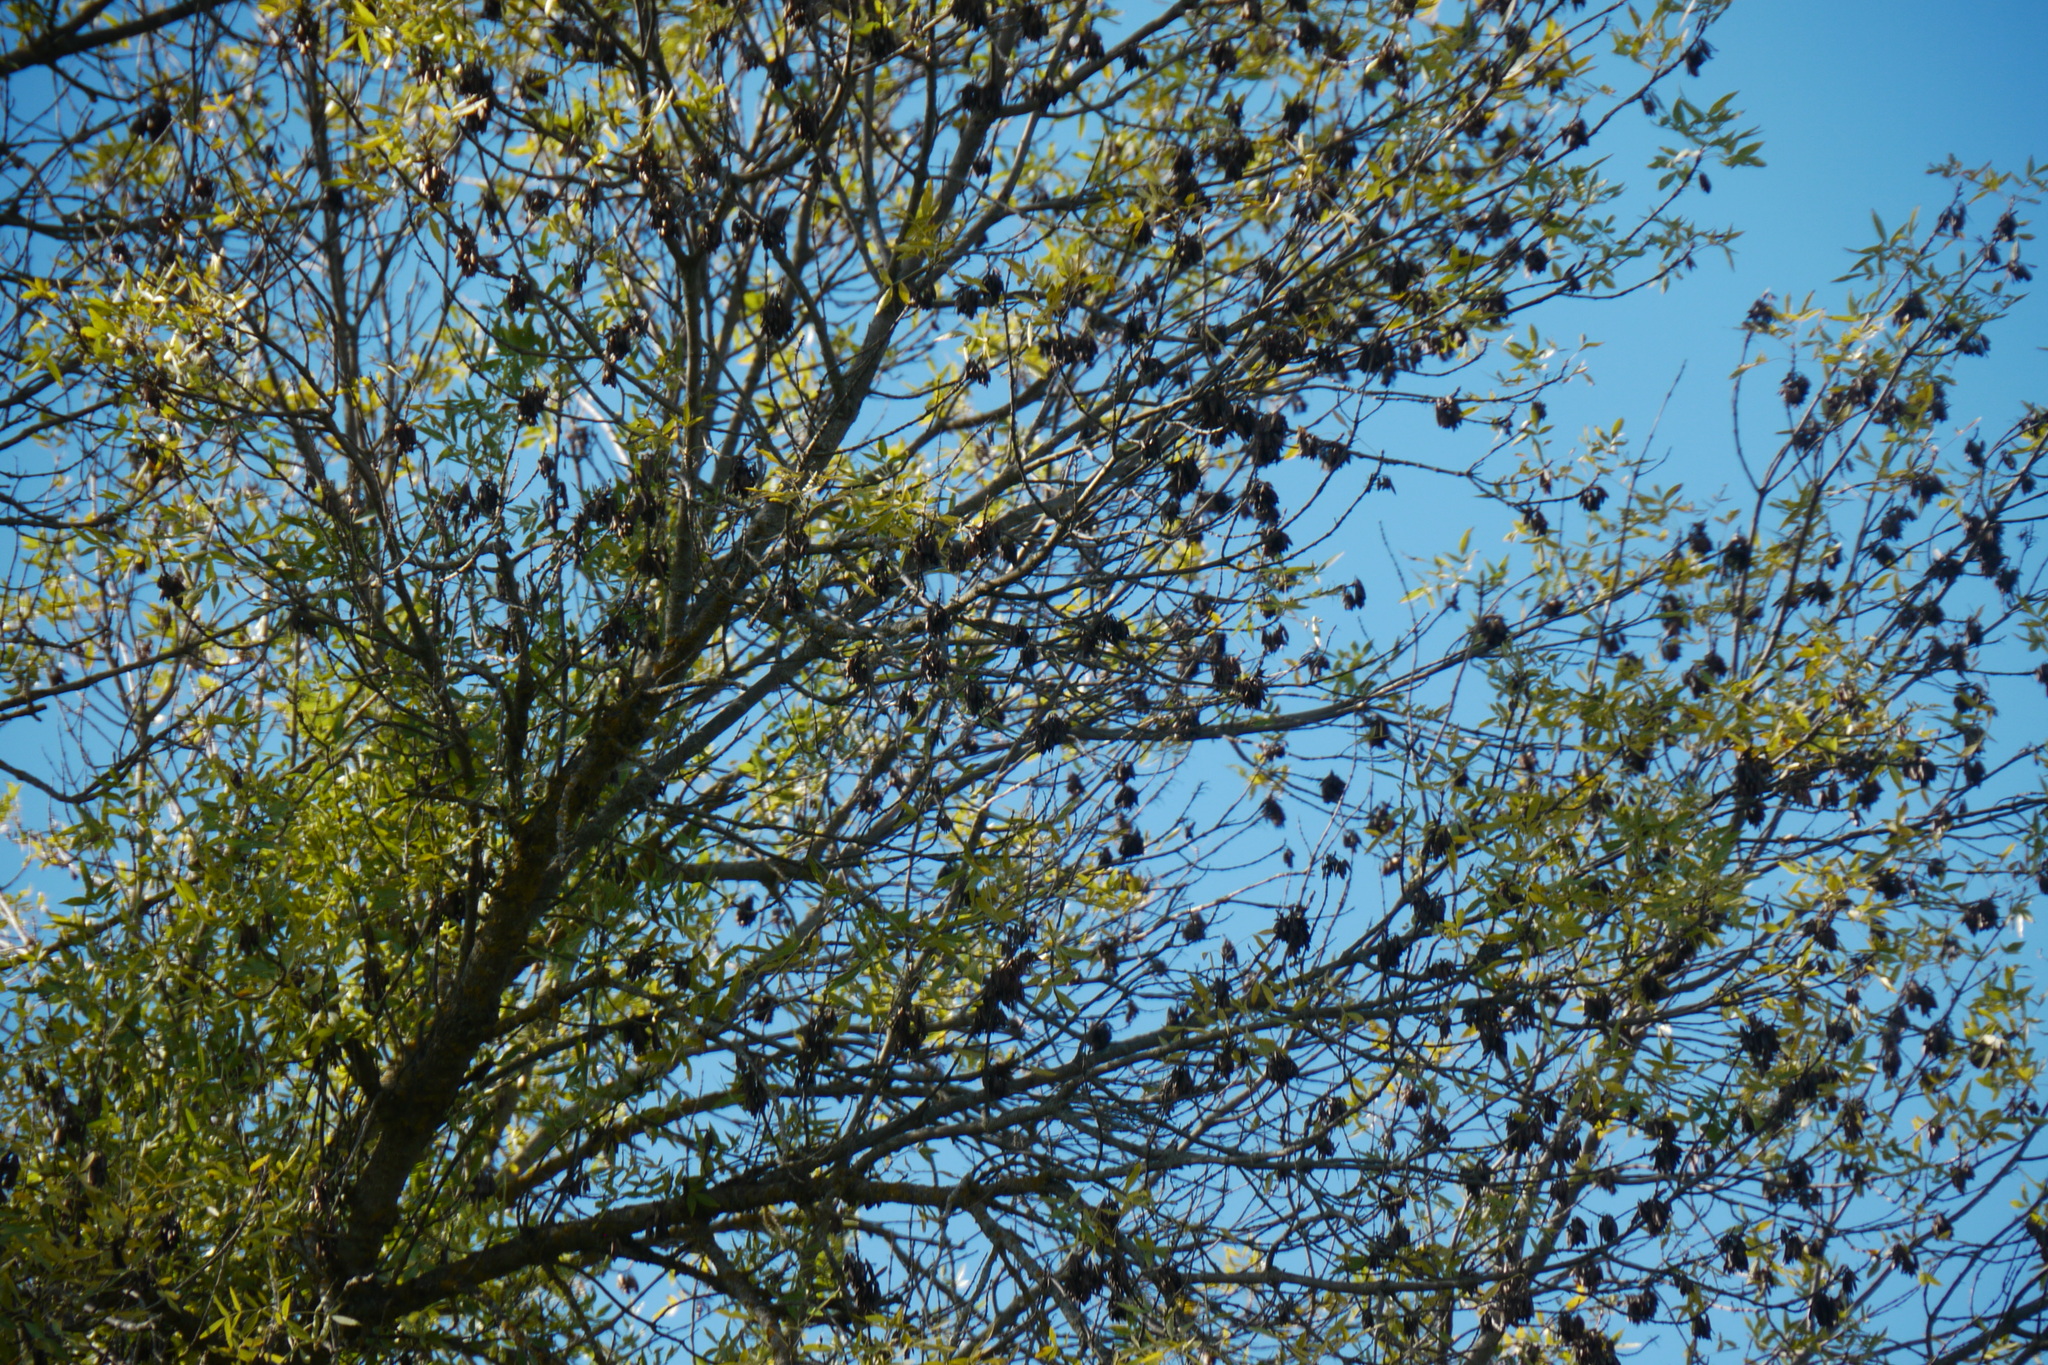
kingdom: Plantae
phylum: Tracheophyta
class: Magnoliopsida
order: Lamiales
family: Oleaceae
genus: Fraxinus
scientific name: Fraxinus angustifolia
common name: Narrow-leafed ash
